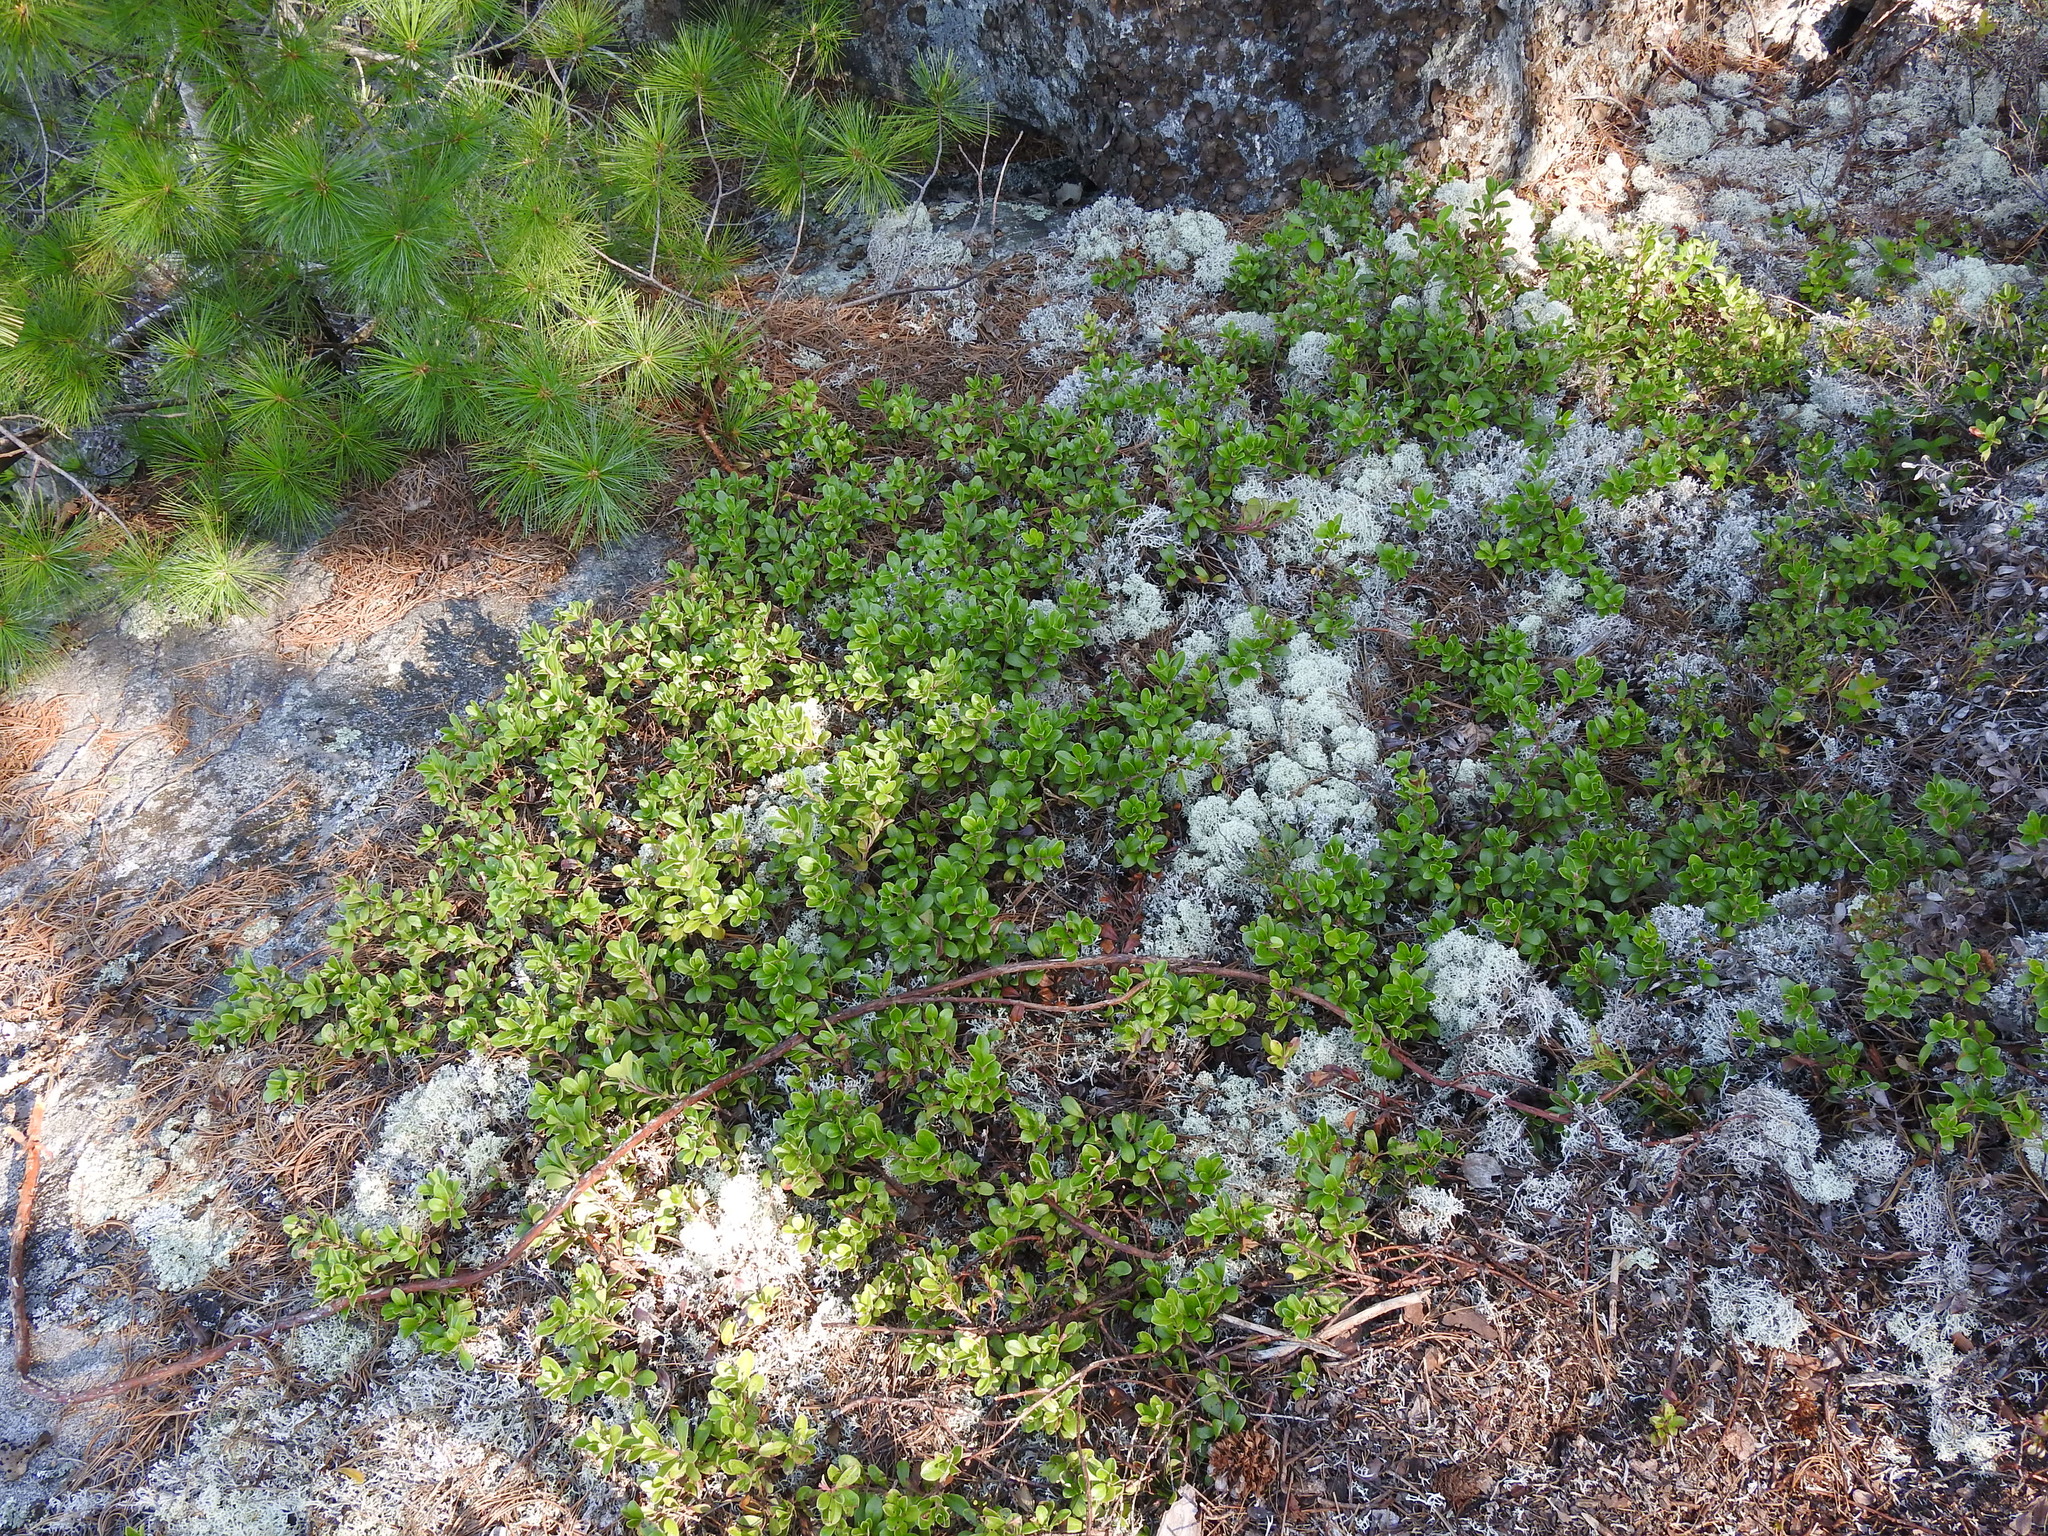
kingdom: Plantae
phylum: Tracheophyta
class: Magnoliopsida
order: Ericales
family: Ericaceae
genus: Arctostaphylos
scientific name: Arctostaphylos uva-ursi
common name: Bearberry
